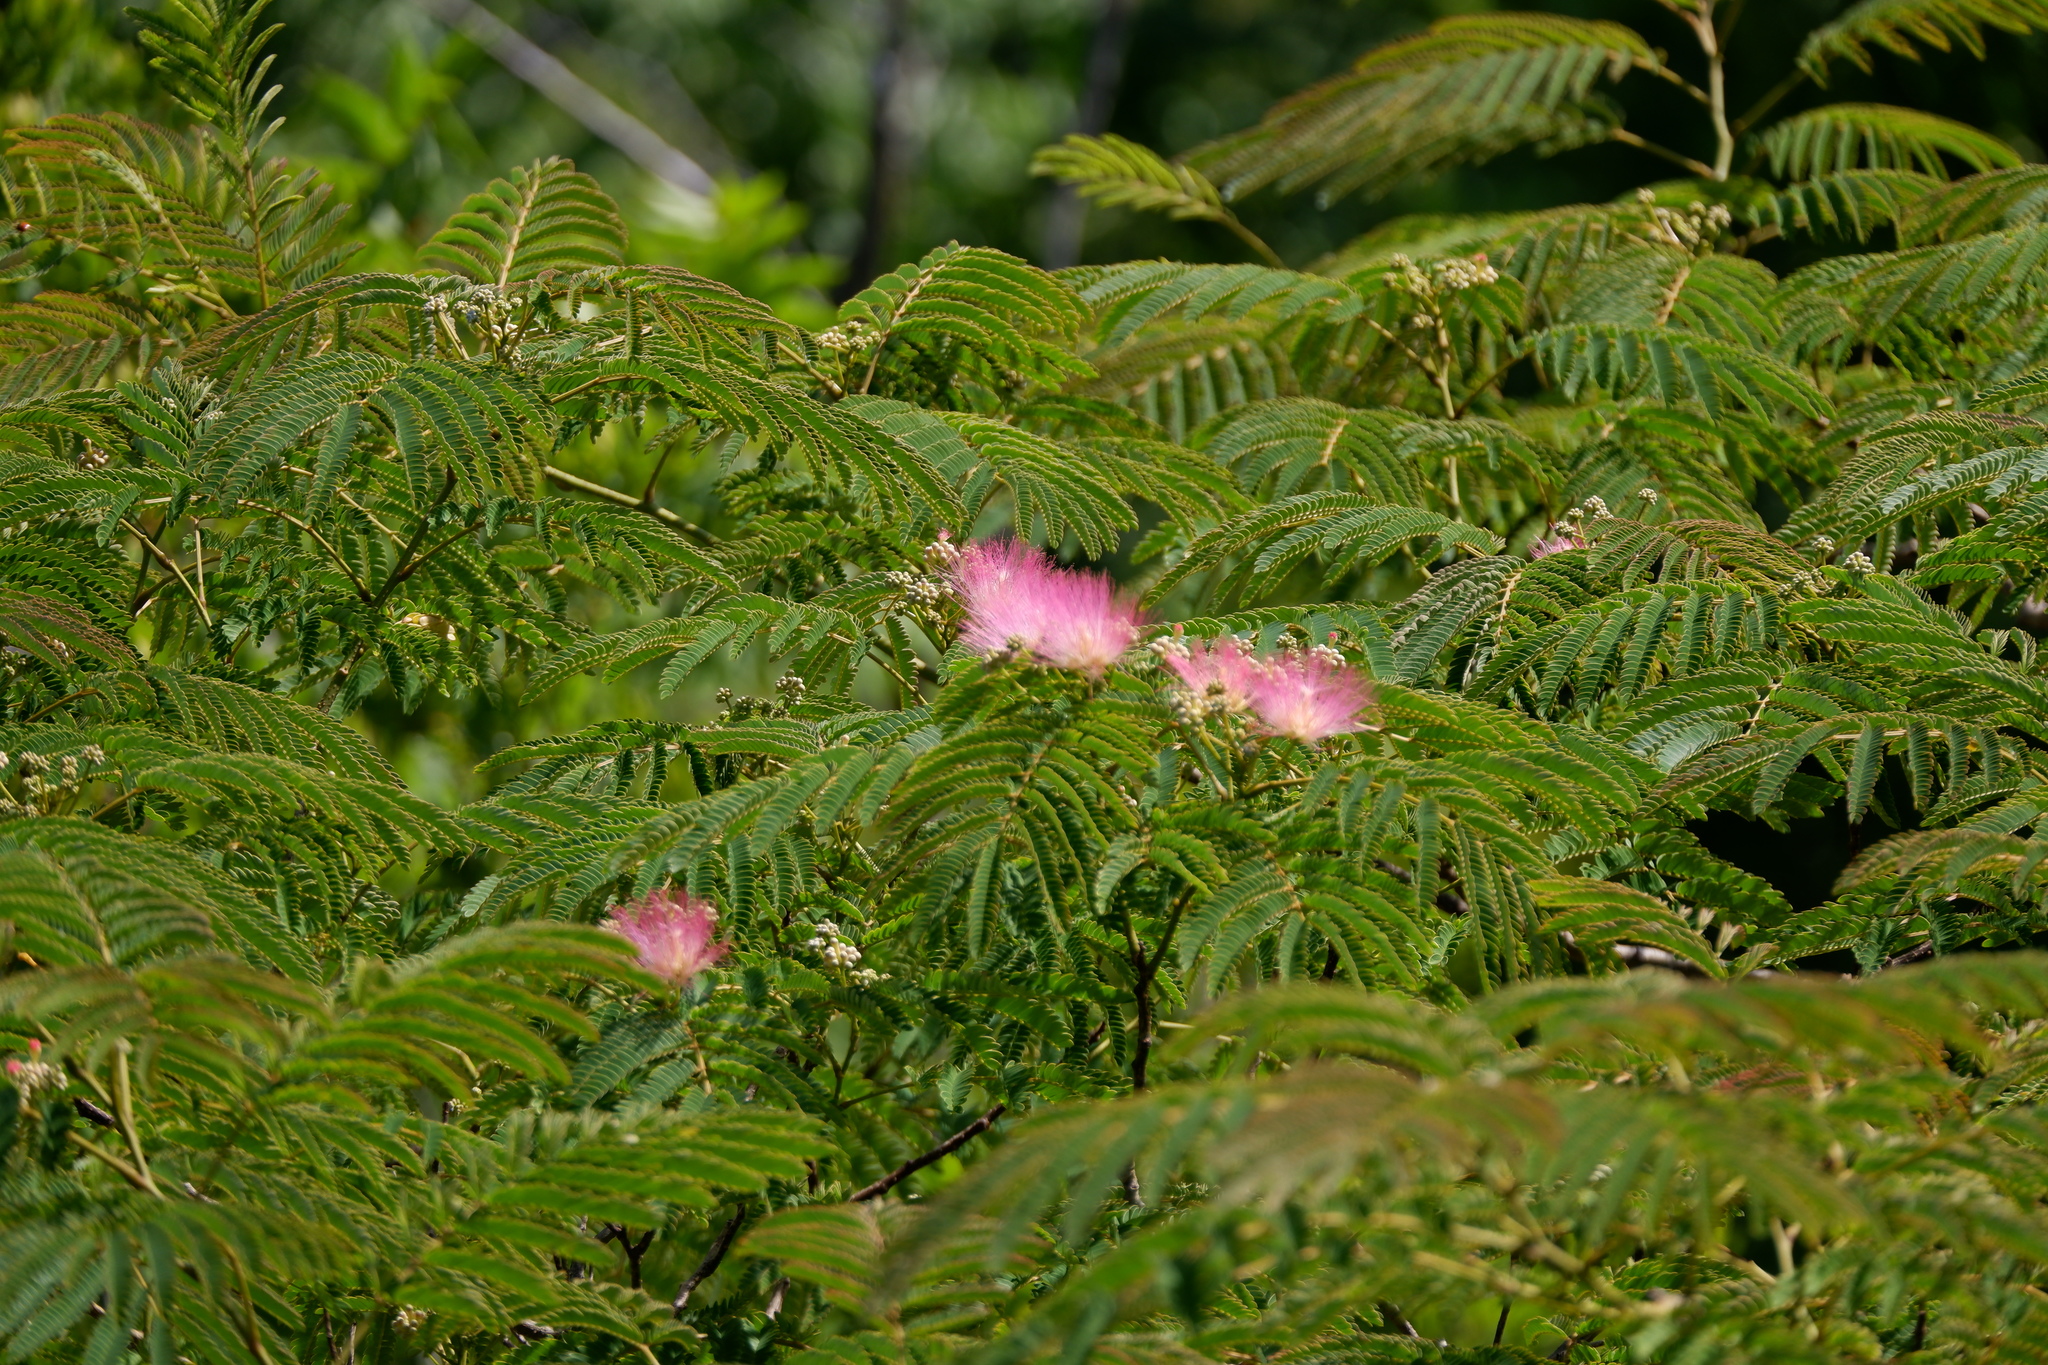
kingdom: Plantae
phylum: Tracheophyta
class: Magnoliopsida
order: Fabales
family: Fabaceae
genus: Albizia
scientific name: Albizia julibrissin
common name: Silktree
